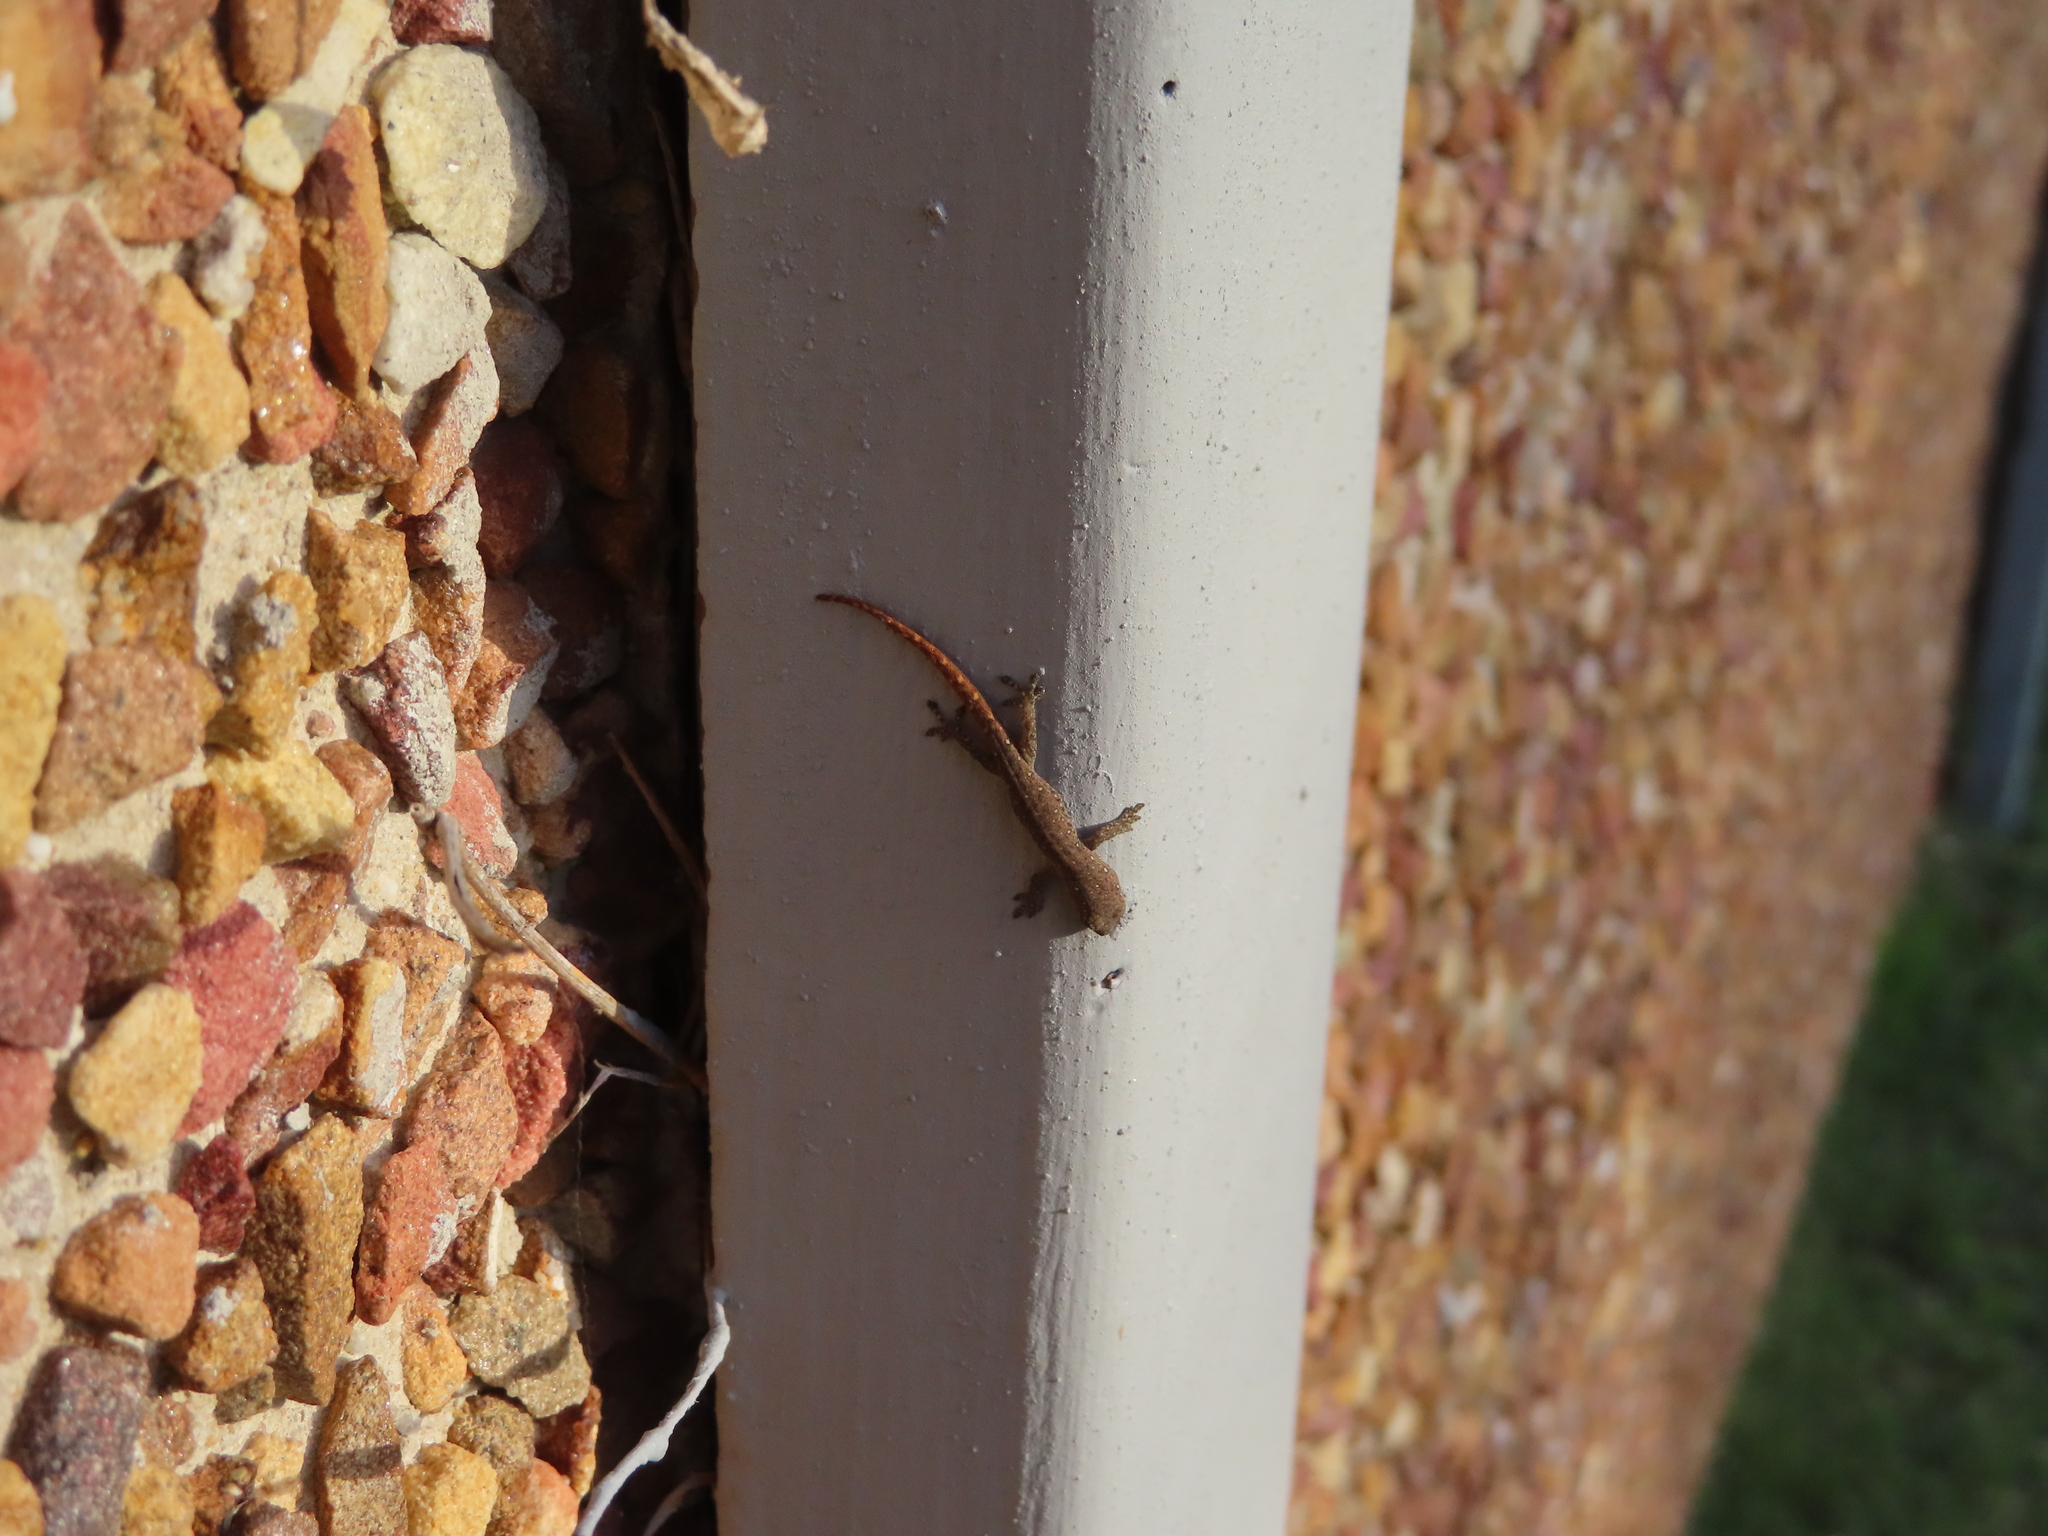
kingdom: Animalia
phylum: Chordata
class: Squamata
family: Gekkonidae
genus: Lygodactylus
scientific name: Lygodactylus capensis
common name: Cape dwarf gecko
